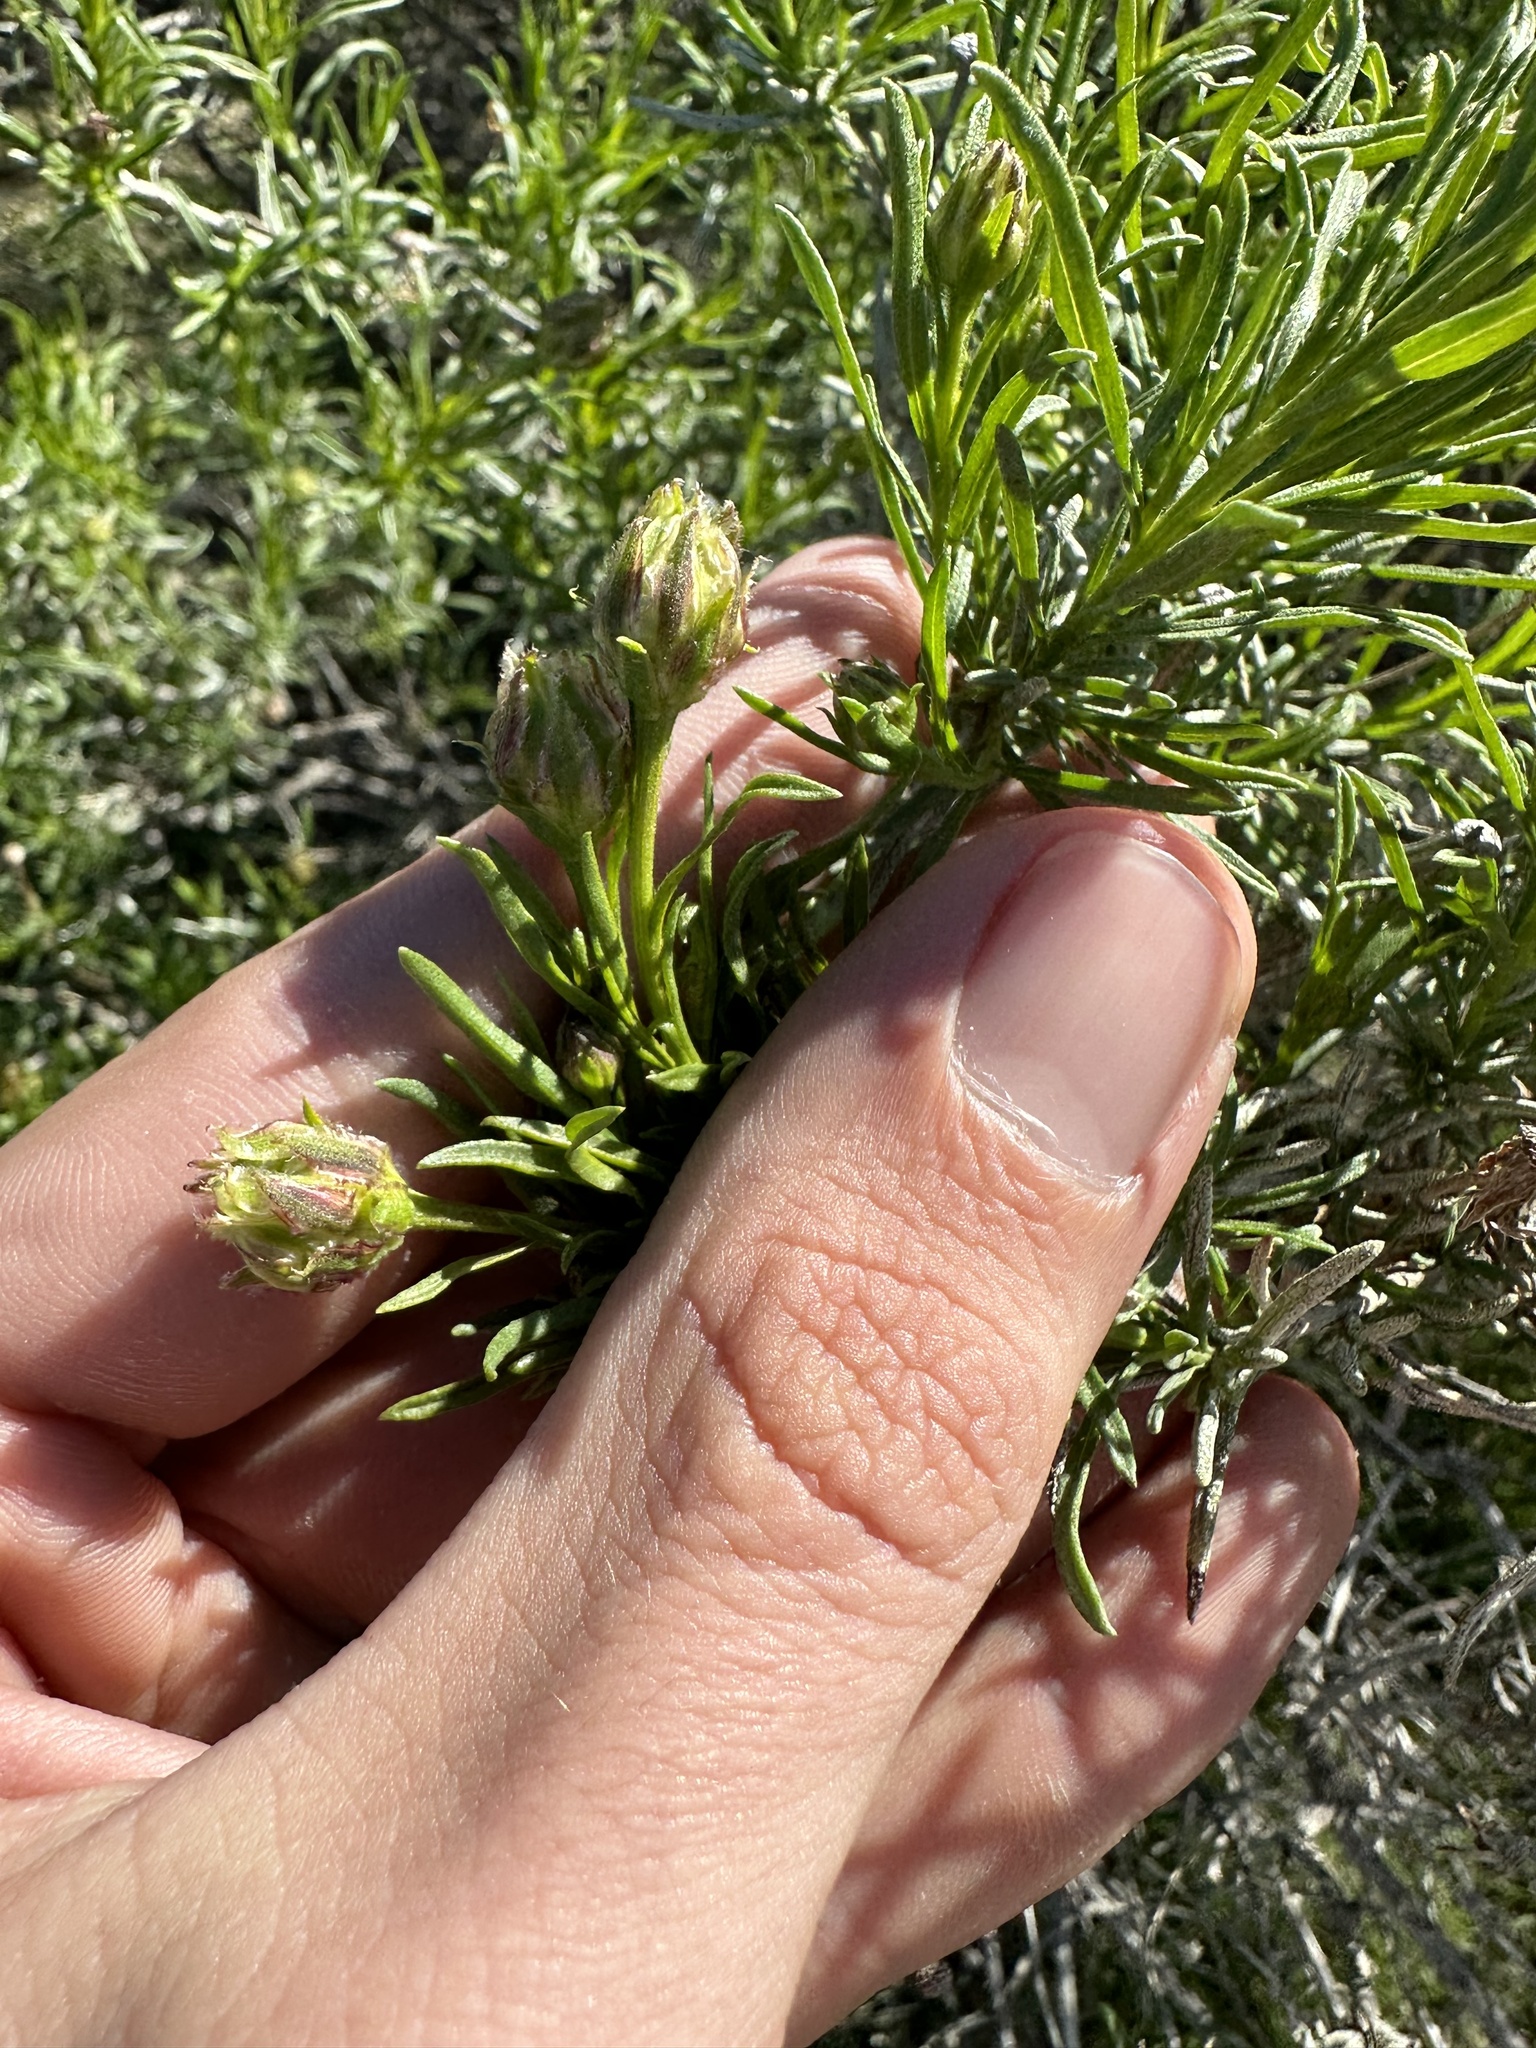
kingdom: Plantae
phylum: Tracheophyta
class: Magnoliopsida
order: Asterales
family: Asteraceae
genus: Ericameria
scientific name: Ericameria linearifolia
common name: Interior goldenbush
